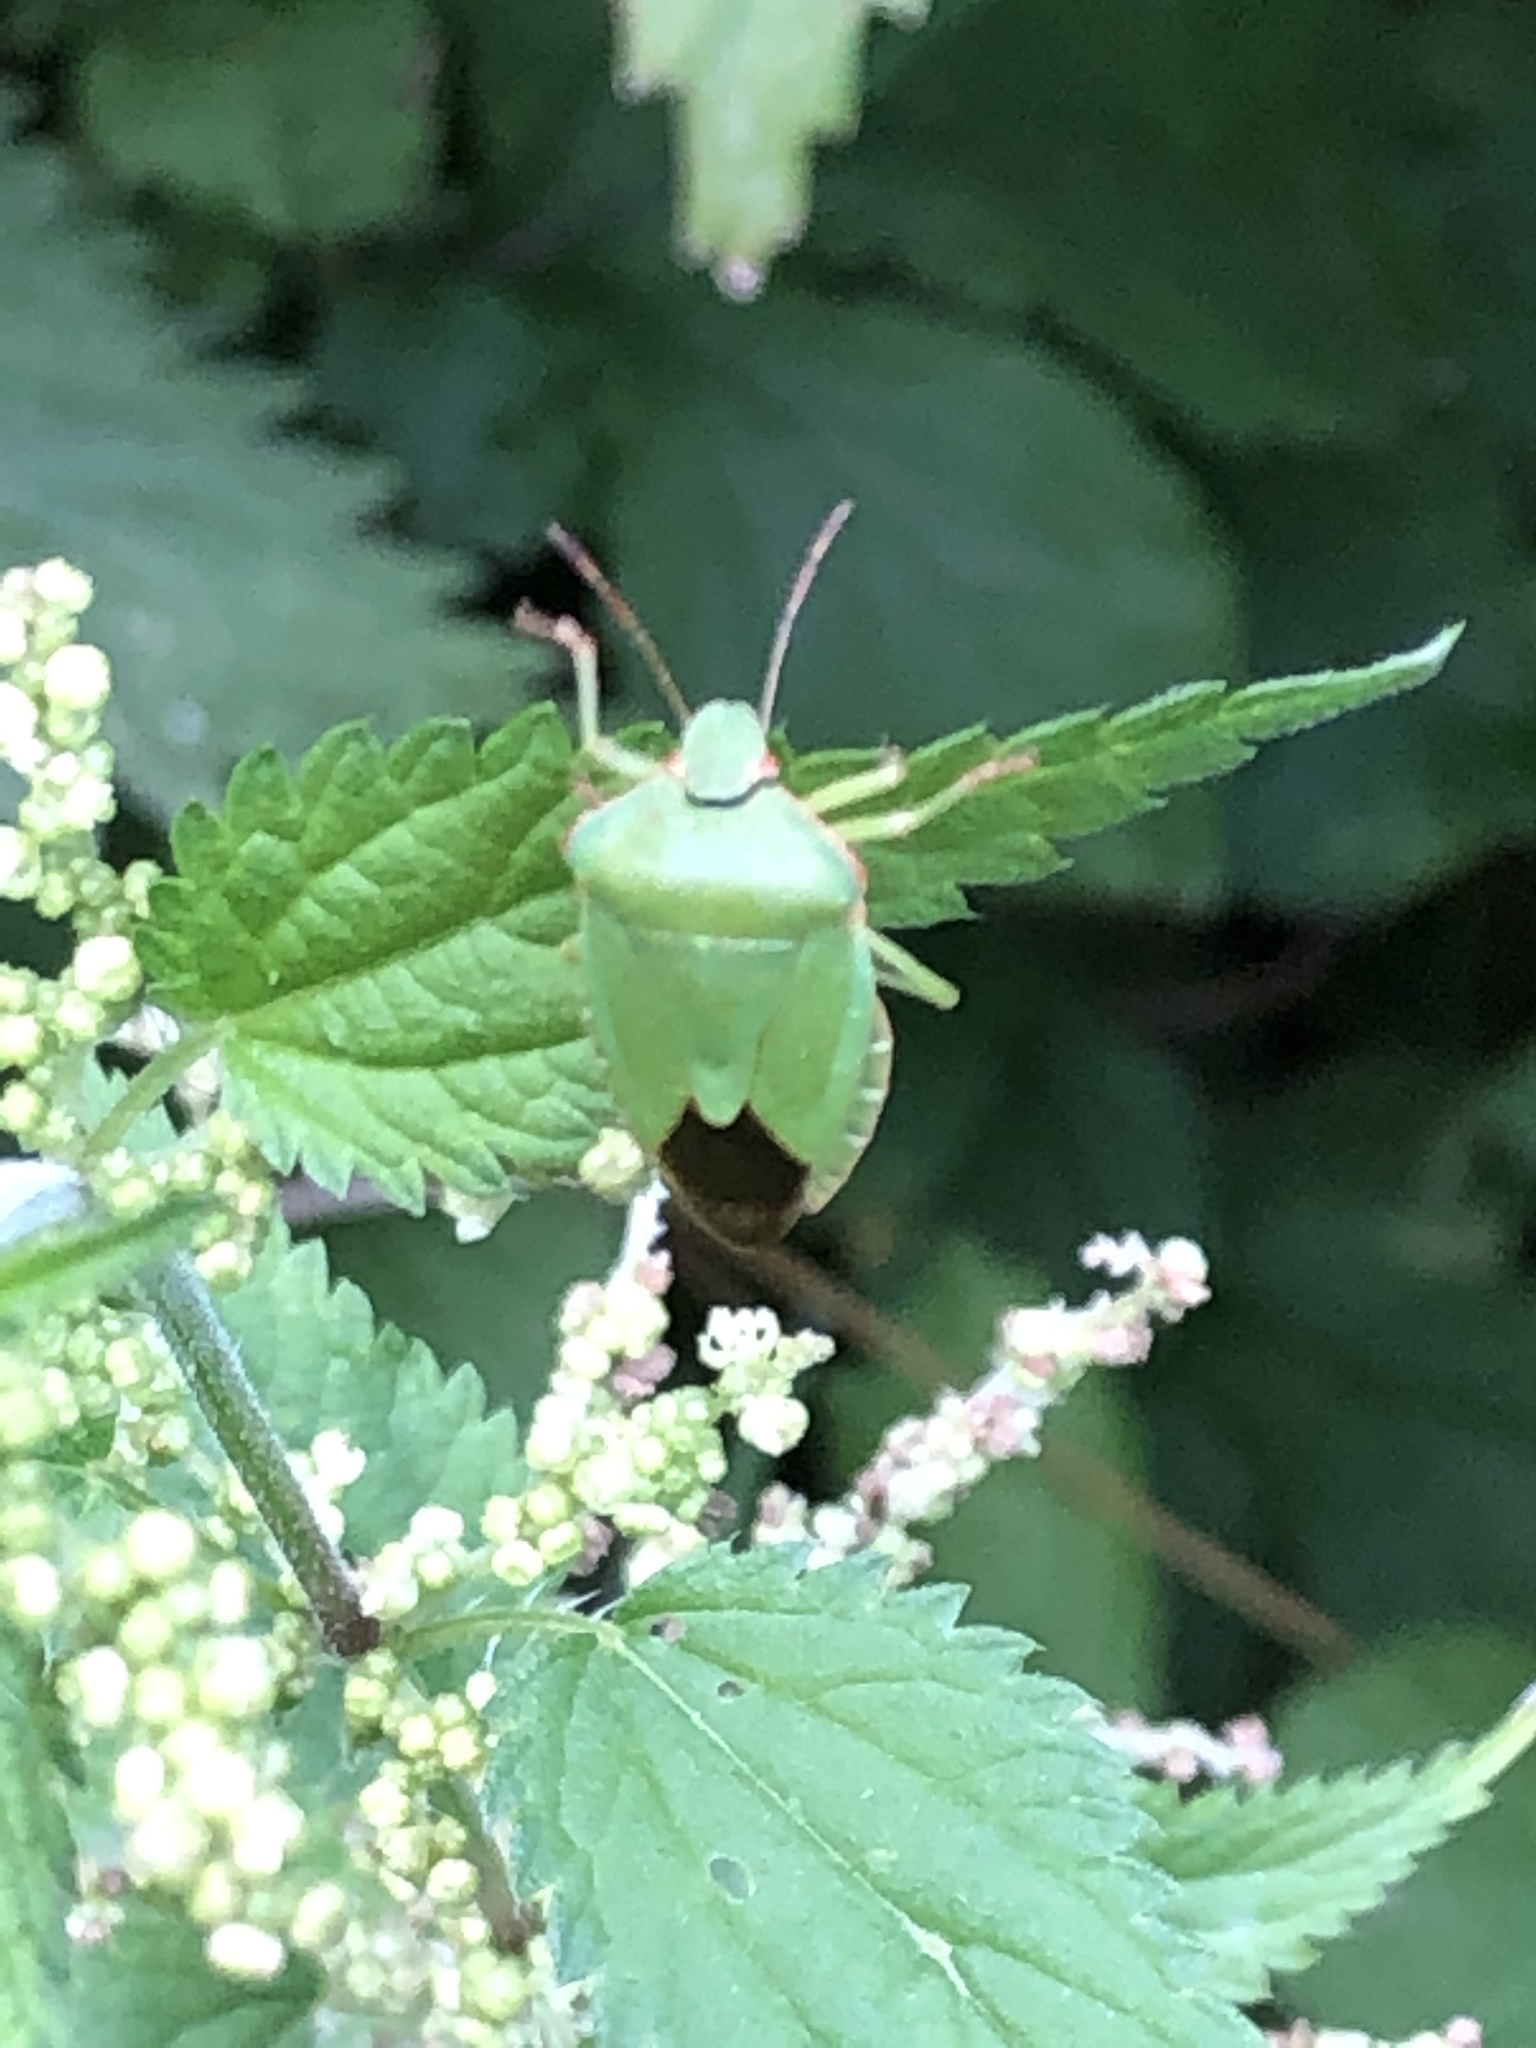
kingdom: Animalia
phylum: Arthropoda
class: Insecta
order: Hemiptera
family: Pentatomidae
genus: Palomena
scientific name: Palomena prasina
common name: Green shieldbug
